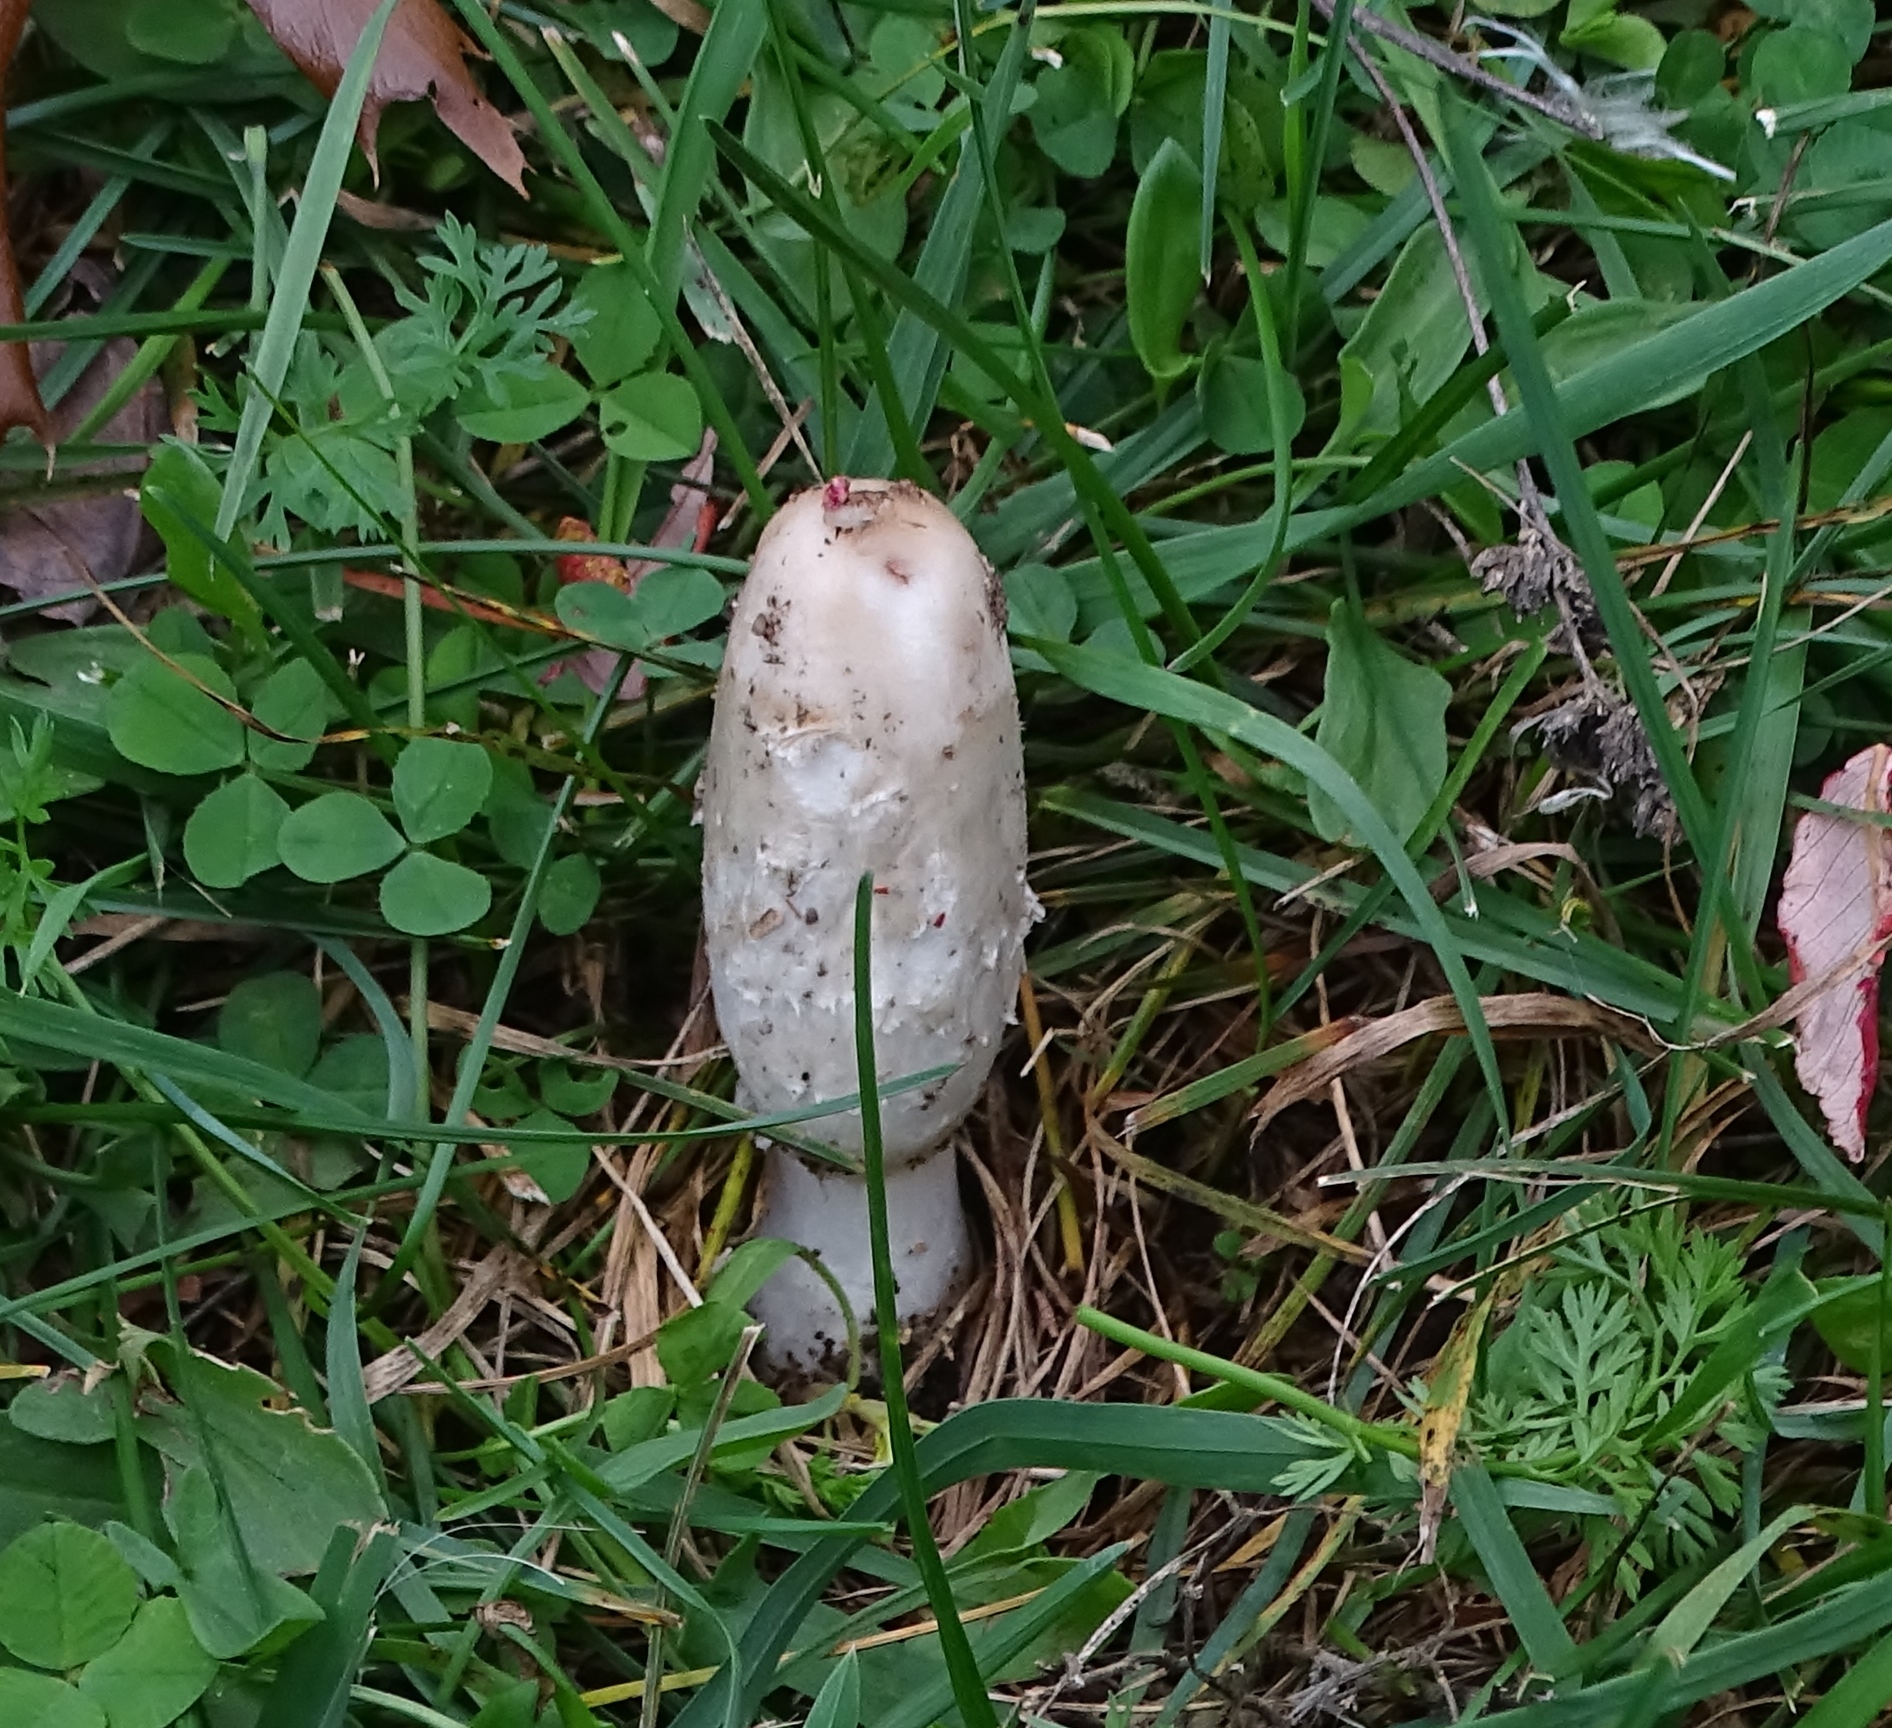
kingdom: Fungi
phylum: Basidiomycota
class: Agaricomycetes
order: Agaricales
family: Agaricaceae
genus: Coprinus
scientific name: Coprinus comatus
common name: Lawyer's wig
